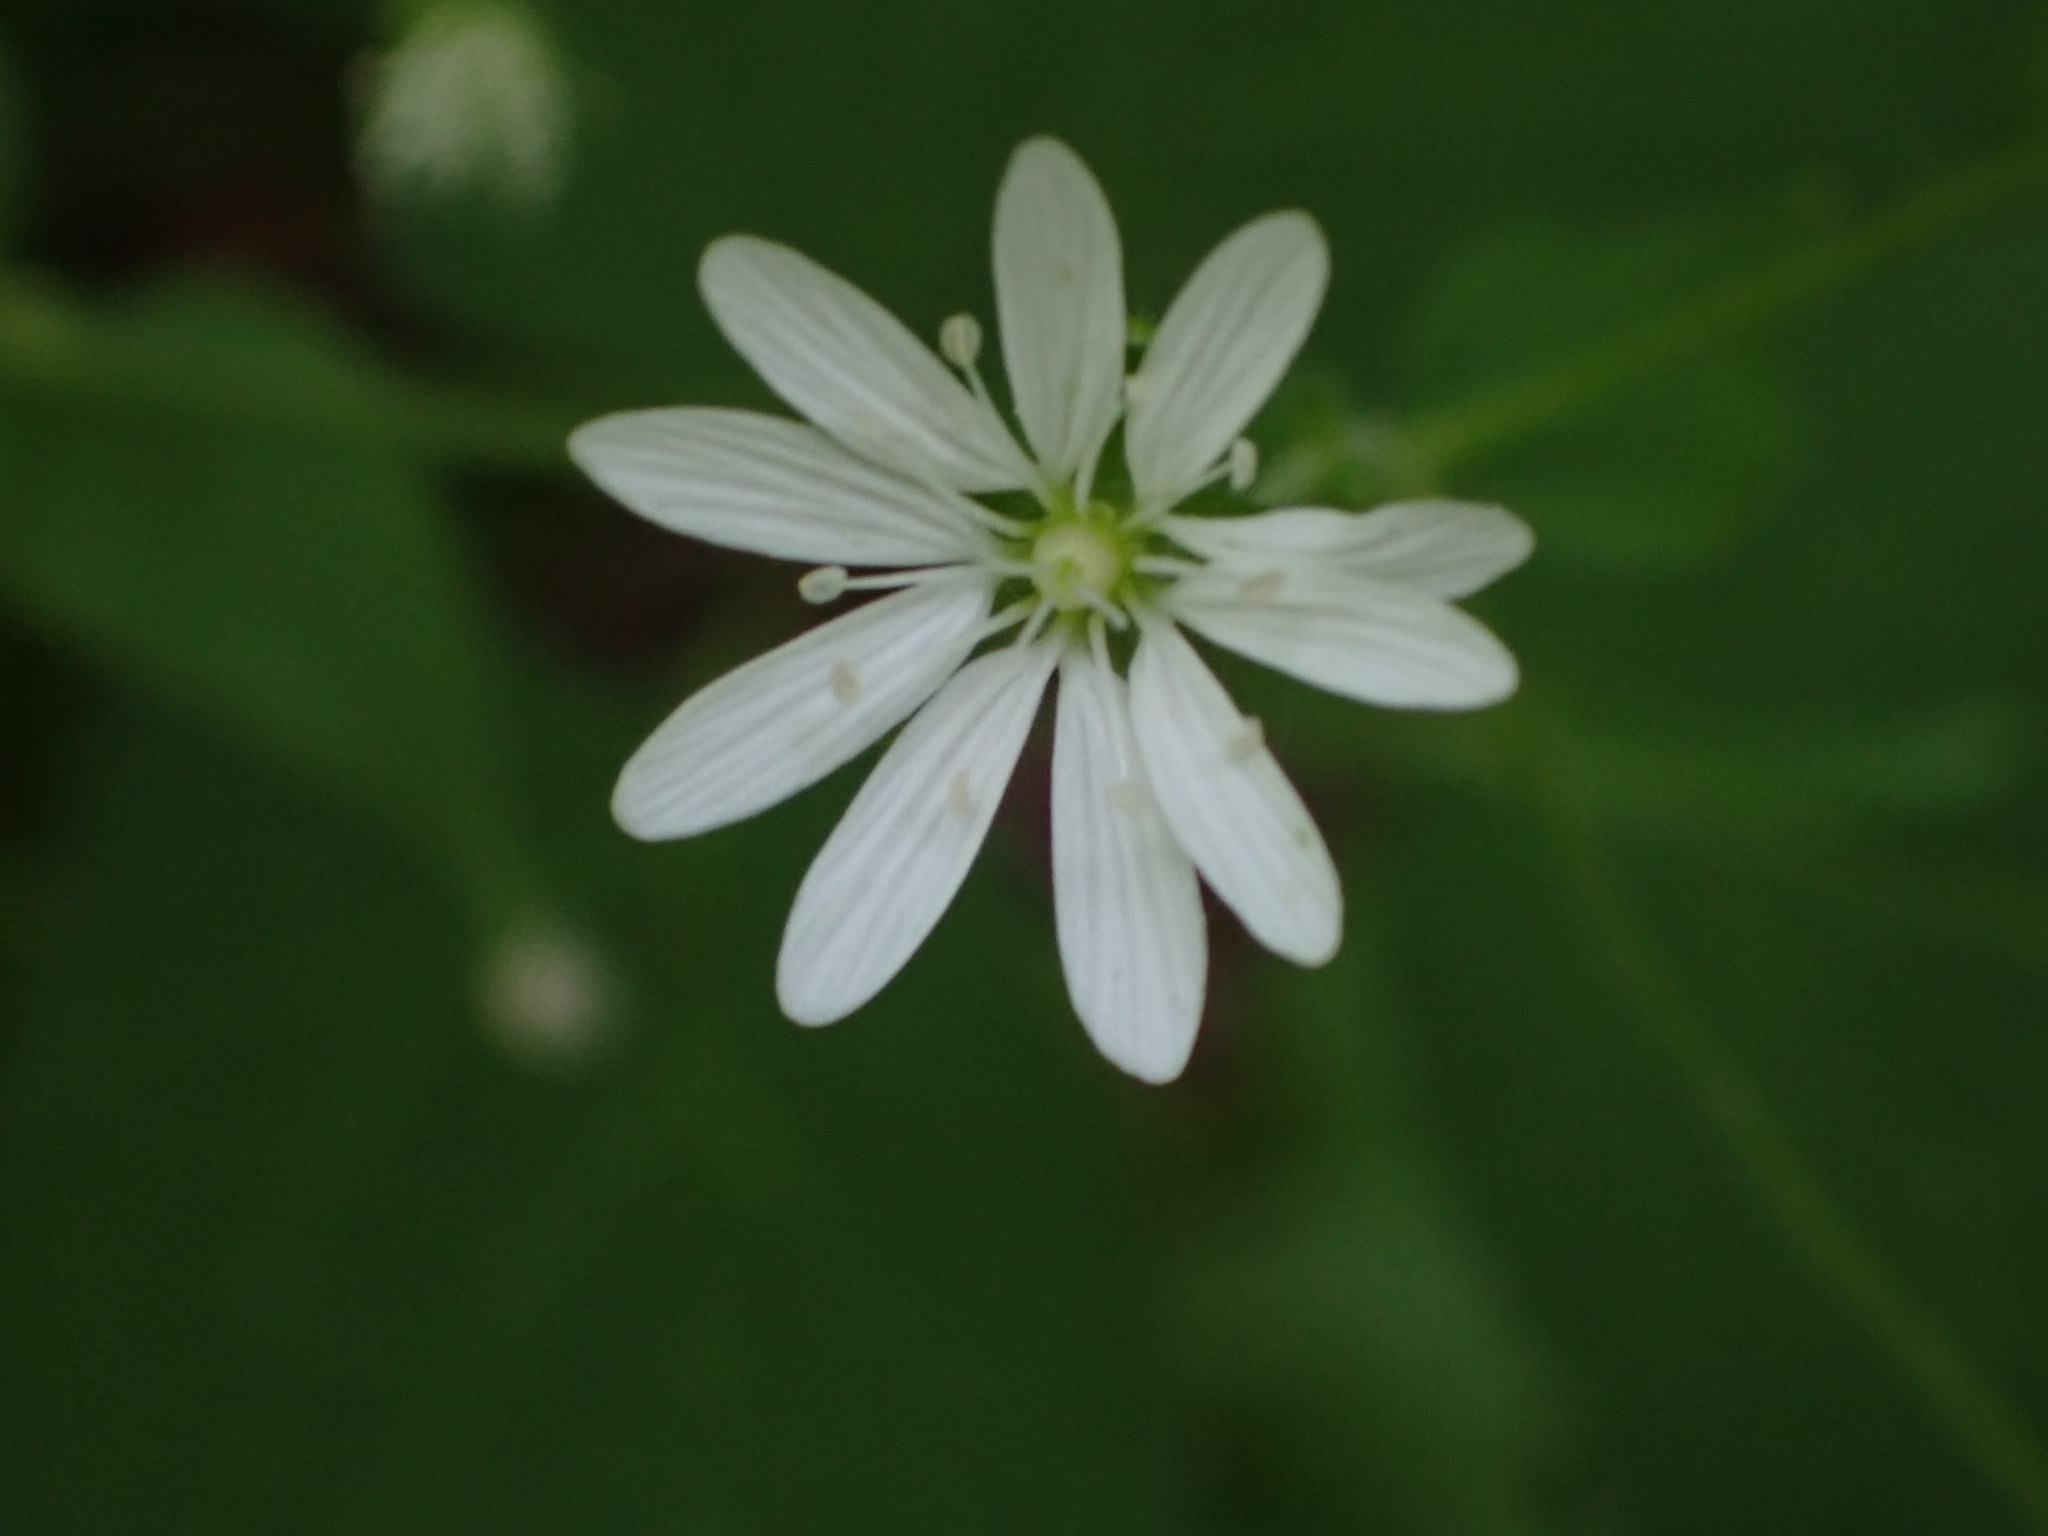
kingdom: Plantae
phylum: Tracheophyta
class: Magnoliopsida
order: Caryophyllales
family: Caryophyllaceae
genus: Stellaria
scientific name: Stellaria bungeana
